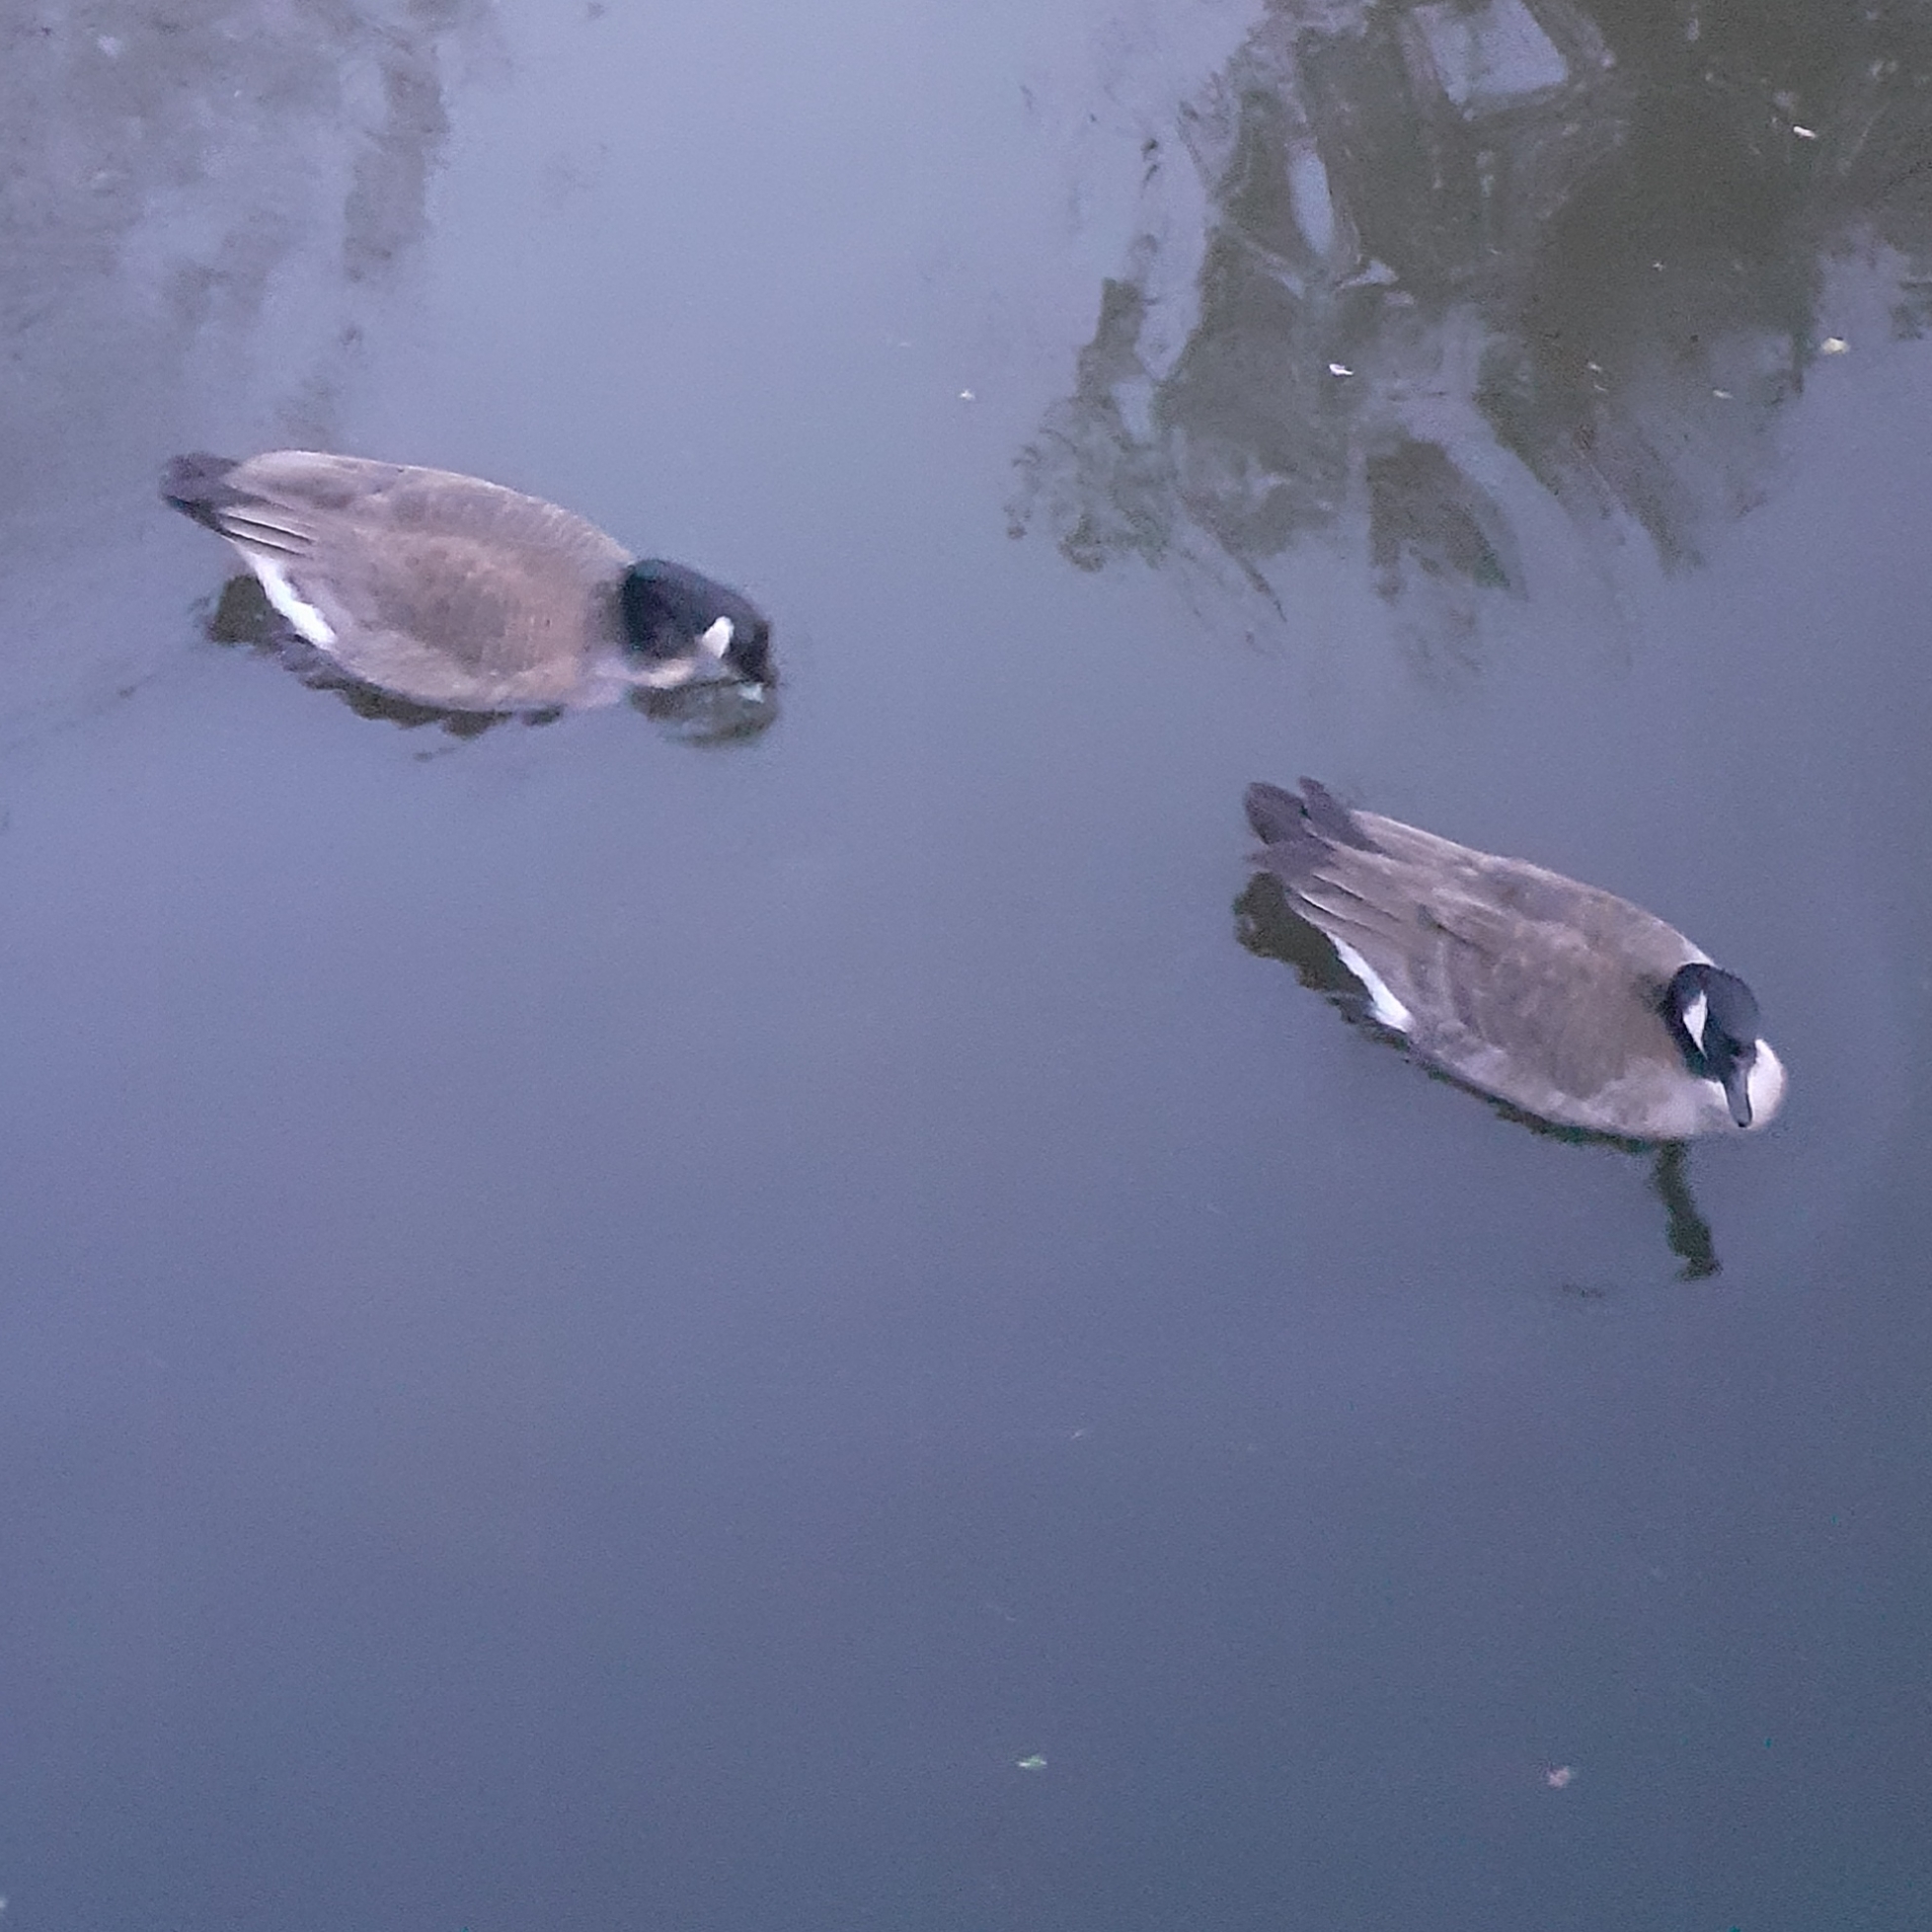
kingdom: Animalia
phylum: Chordata
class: Aves
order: Anseriformes
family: Anatidae
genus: Branta
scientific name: Branta canadensis
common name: Canada goose
